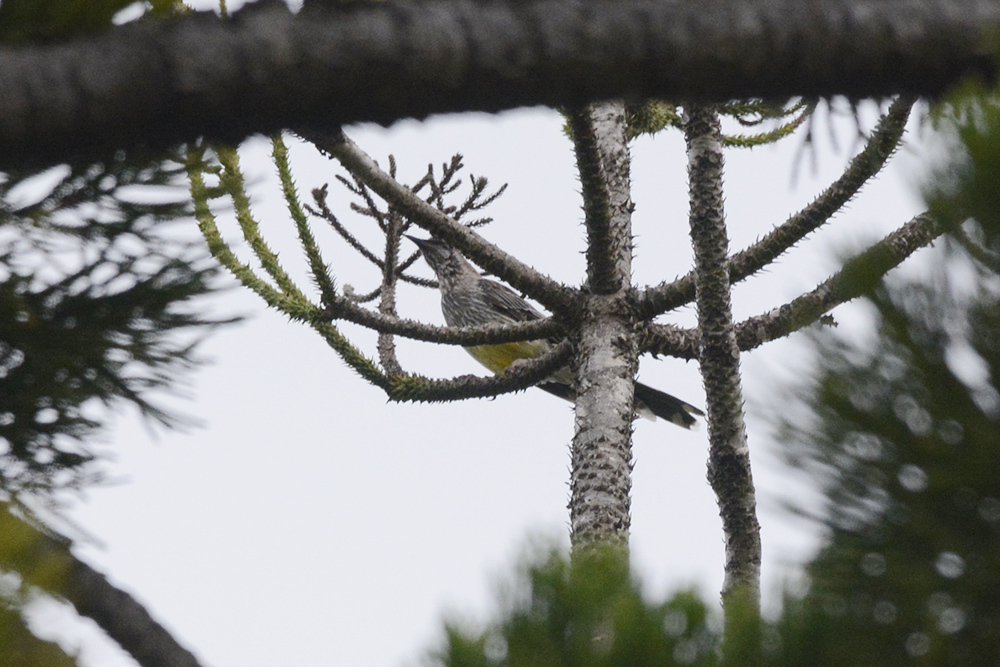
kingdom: Animalia
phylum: Chordata
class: Aves
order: Passeriformes
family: Meliphagidae
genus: Anthochaera
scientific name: Anthochaera carunculata
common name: Red wattlebird
